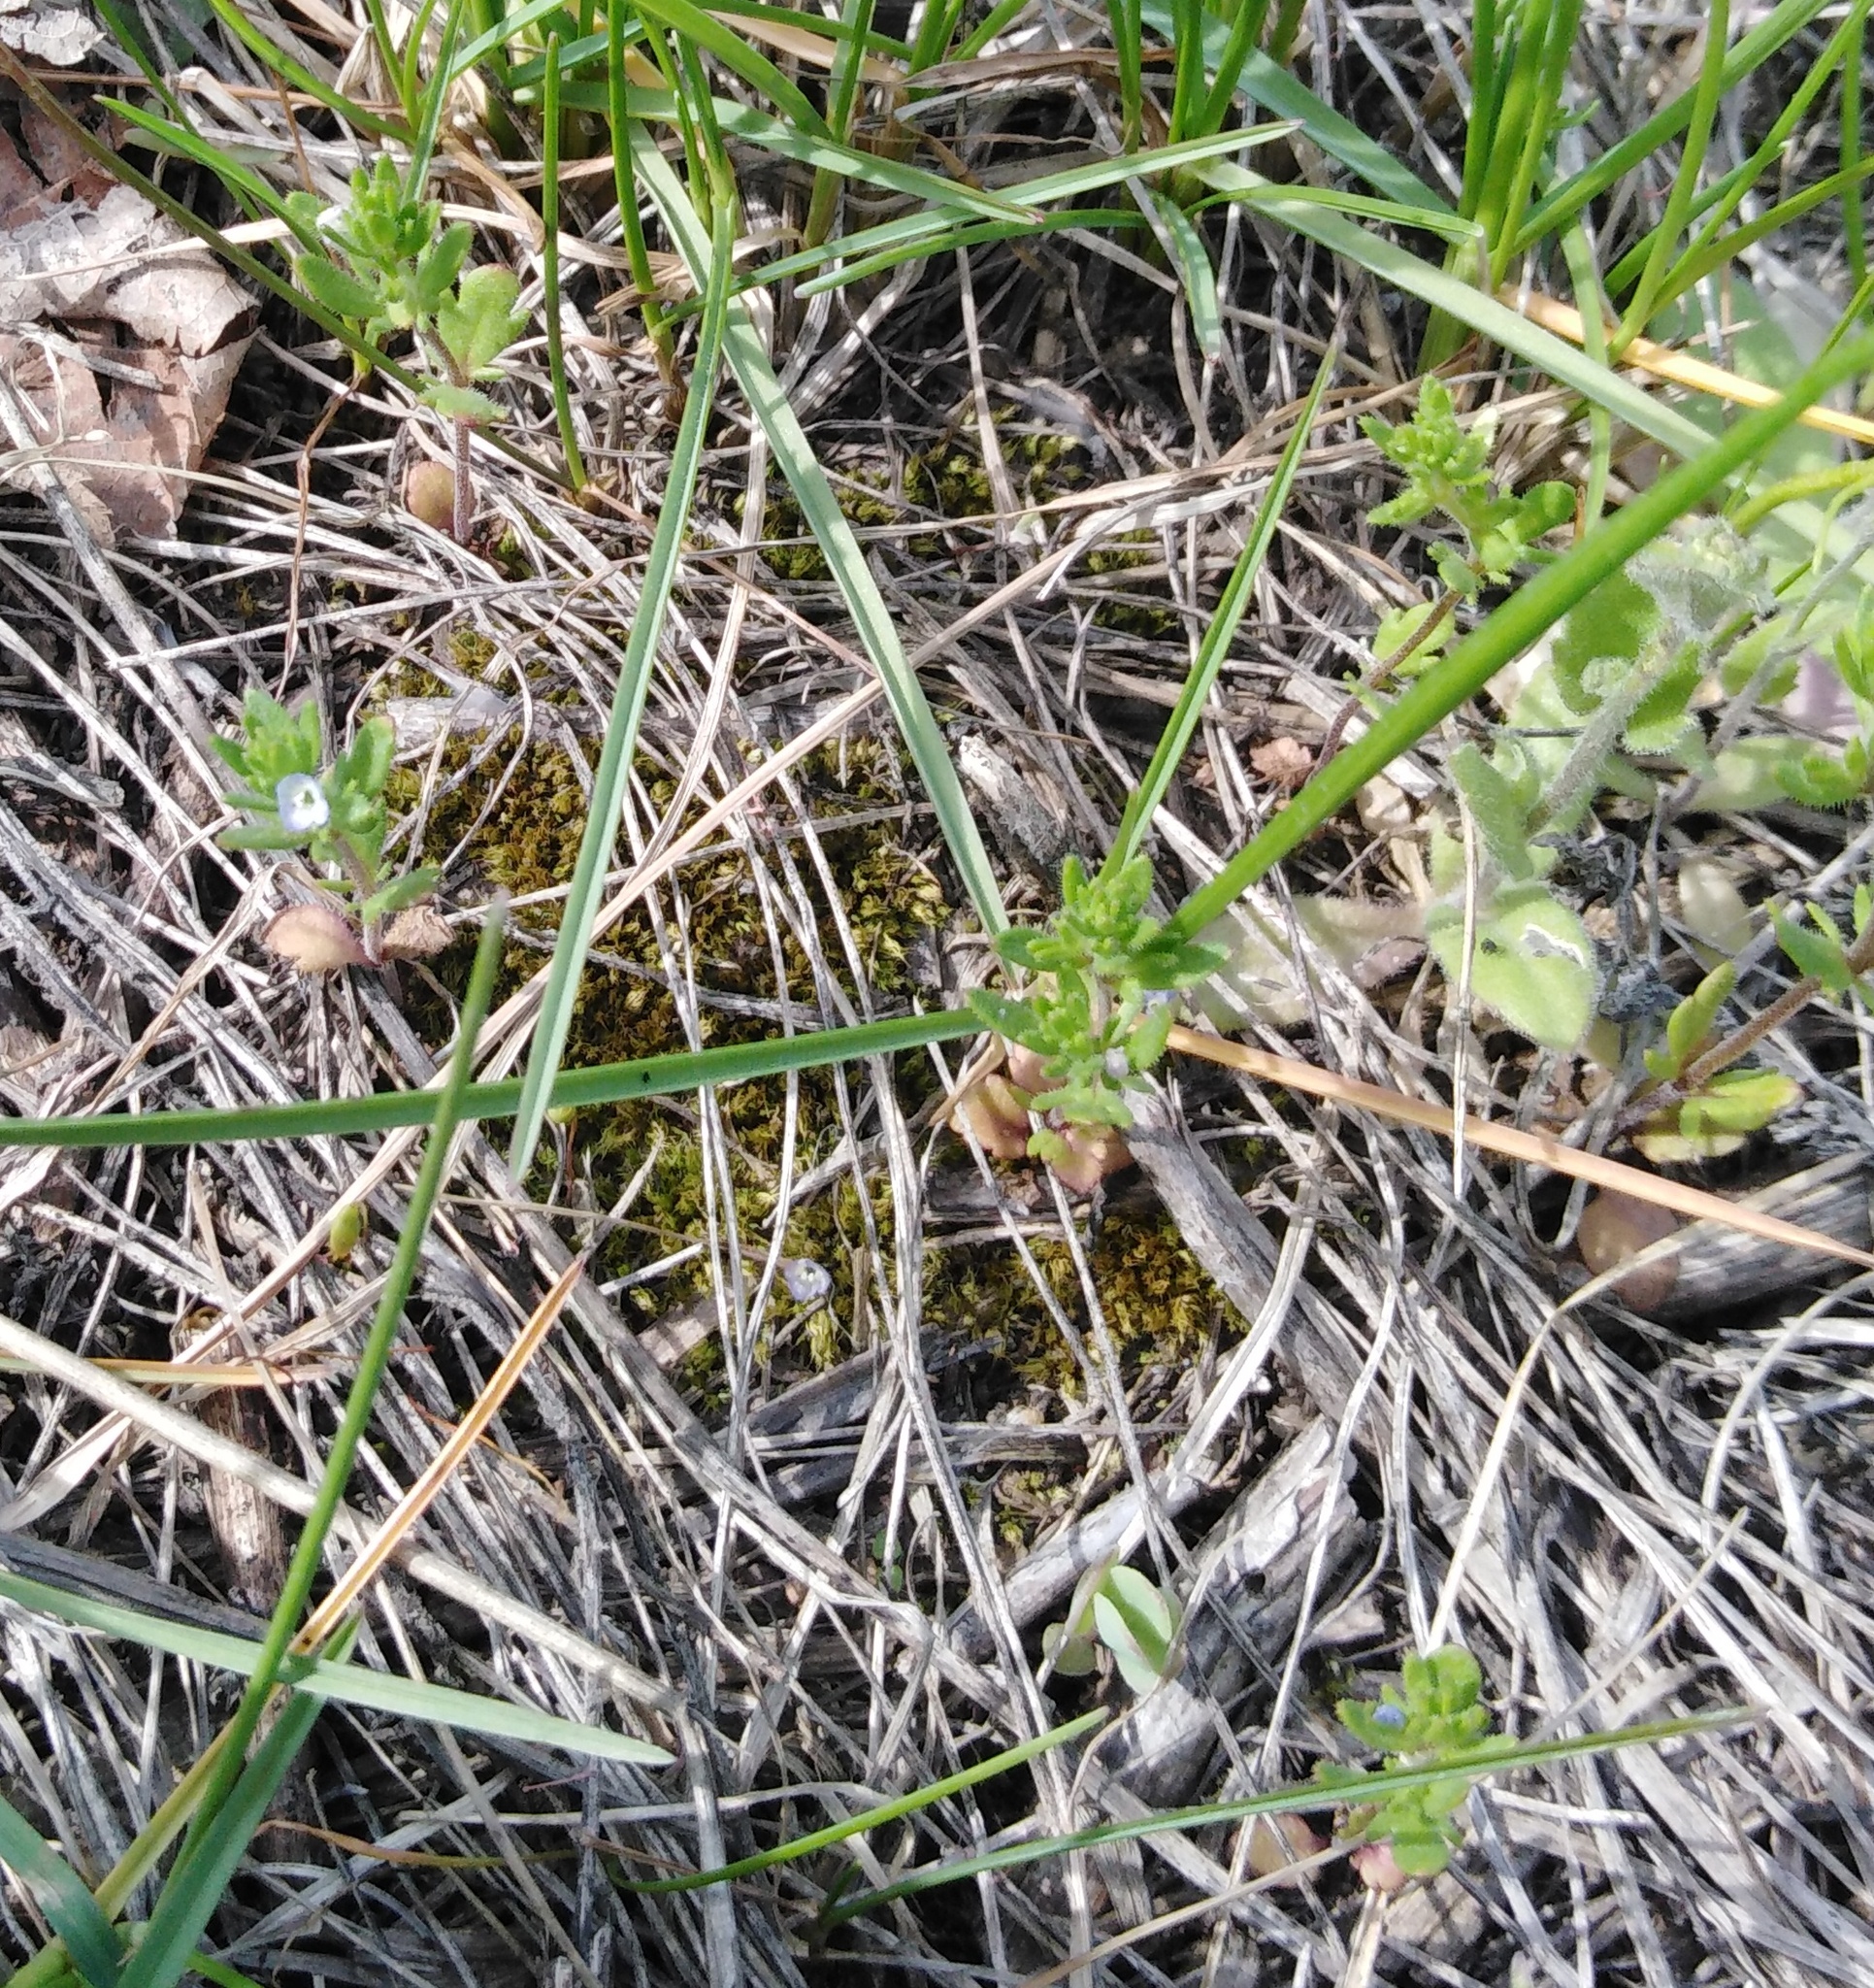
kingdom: Plantae
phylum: Tracheophyta
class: Magnoliopsida
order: Lamiales
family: Plantaginaceae
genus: Veronica
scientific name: Veronica verna
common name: Spring speedwell
